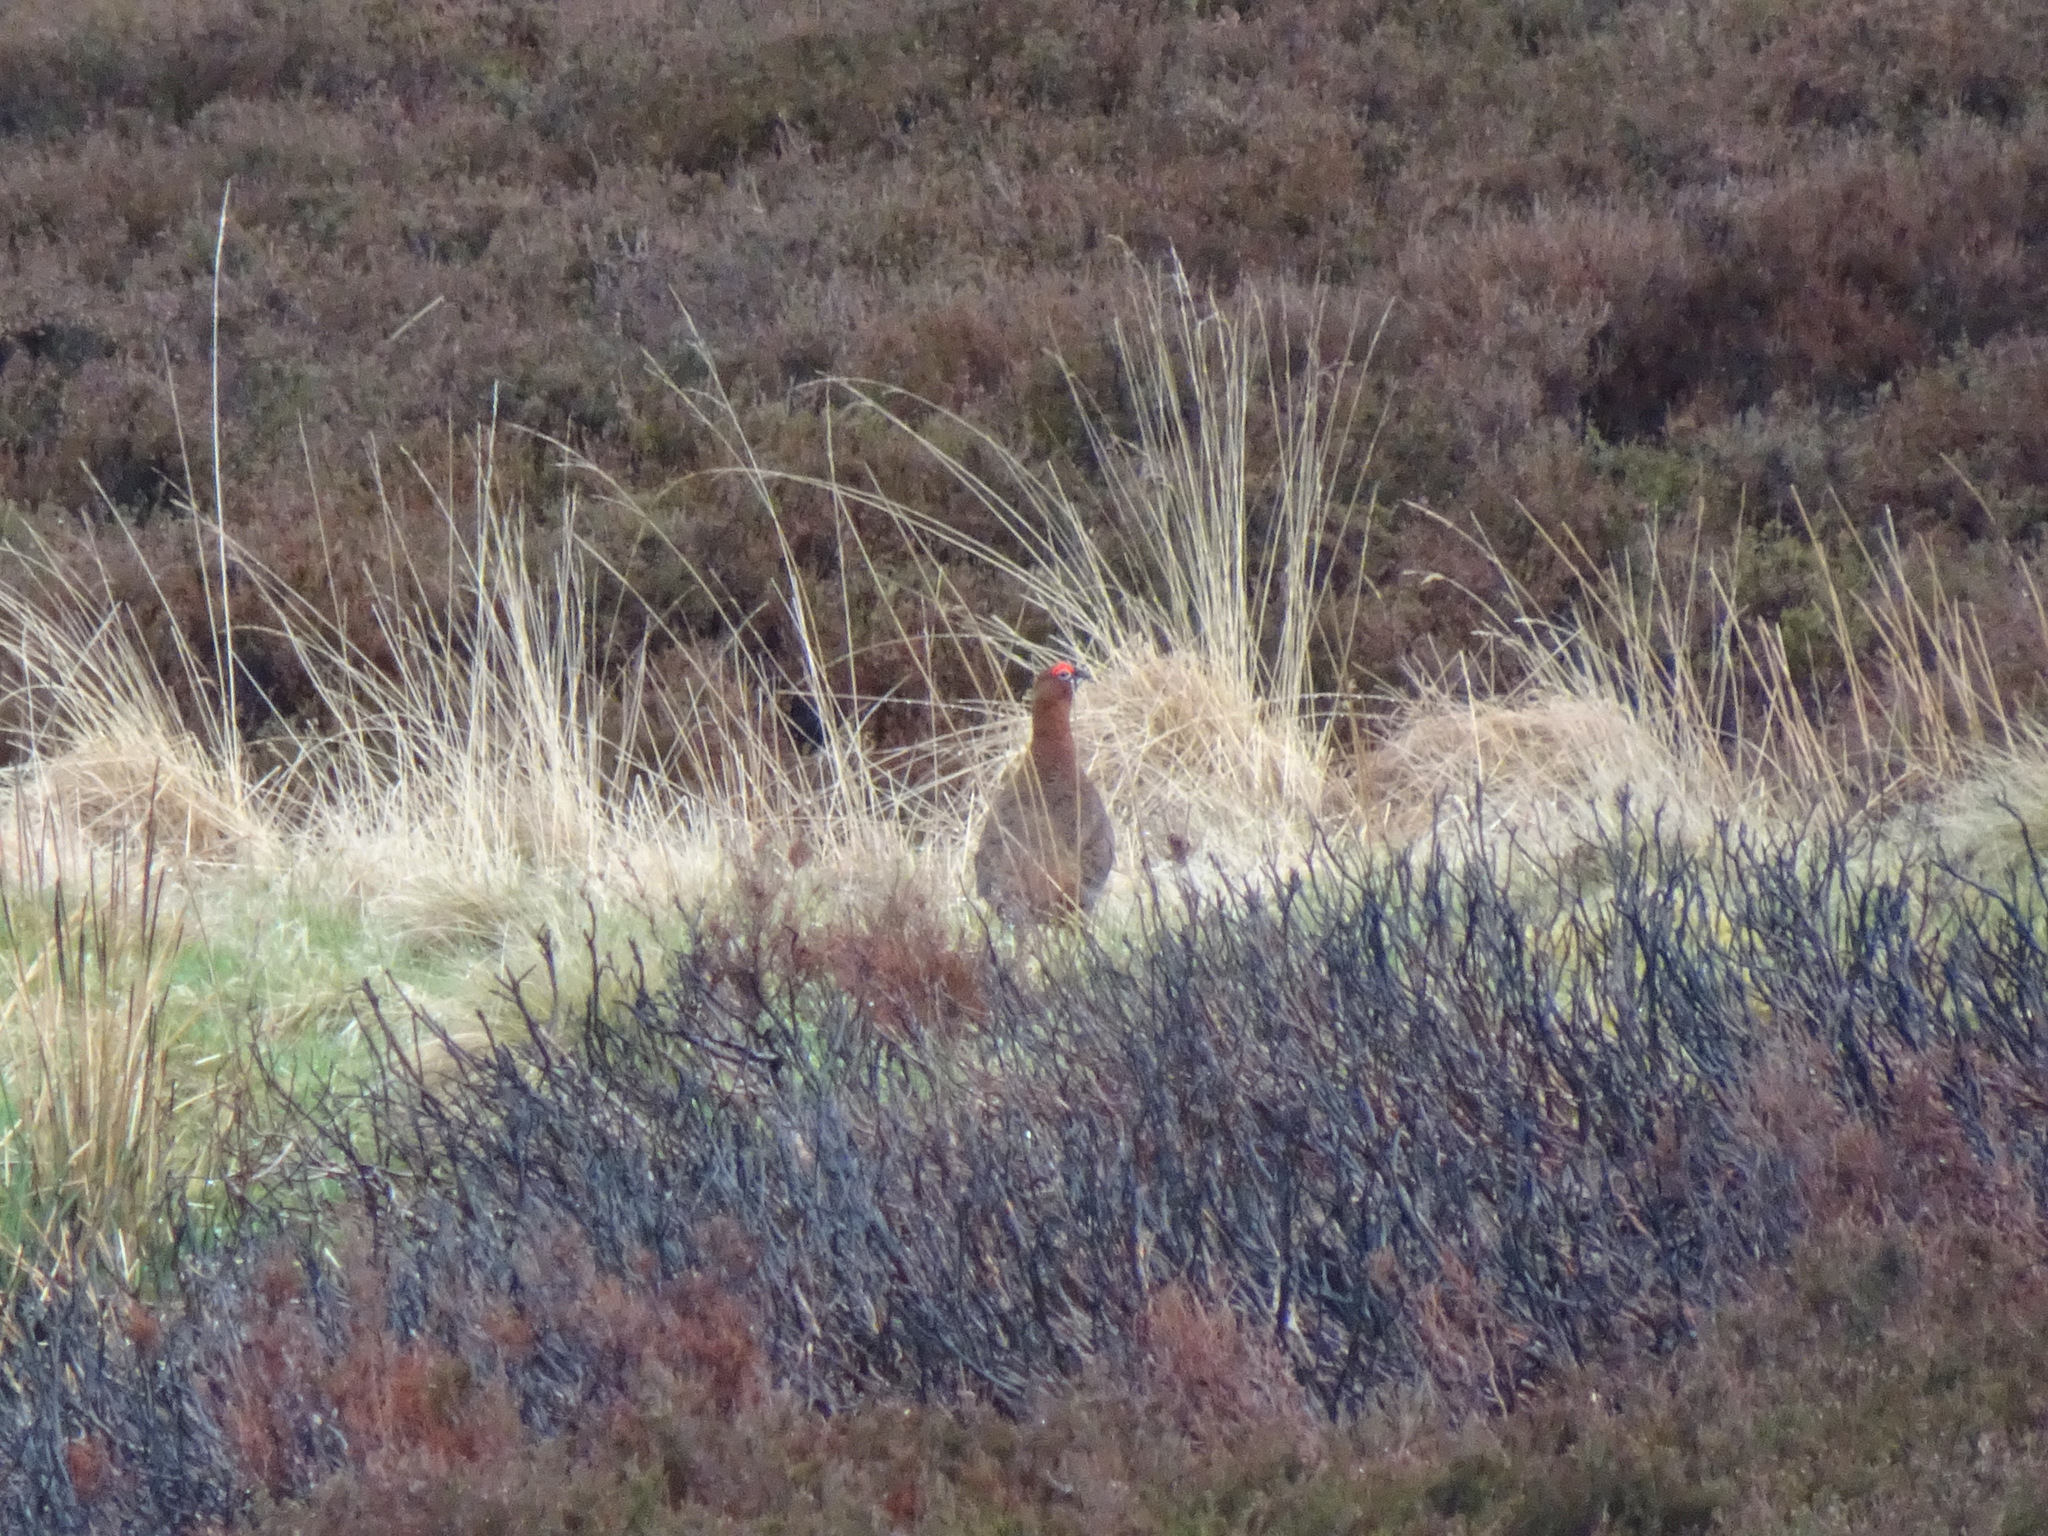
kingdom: Animalia
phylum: Chordata
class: Aves
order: Galliformes
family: Phasianidae
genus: Lagopus
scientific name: Lagopus lagopus
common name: Willow ptarmigan
